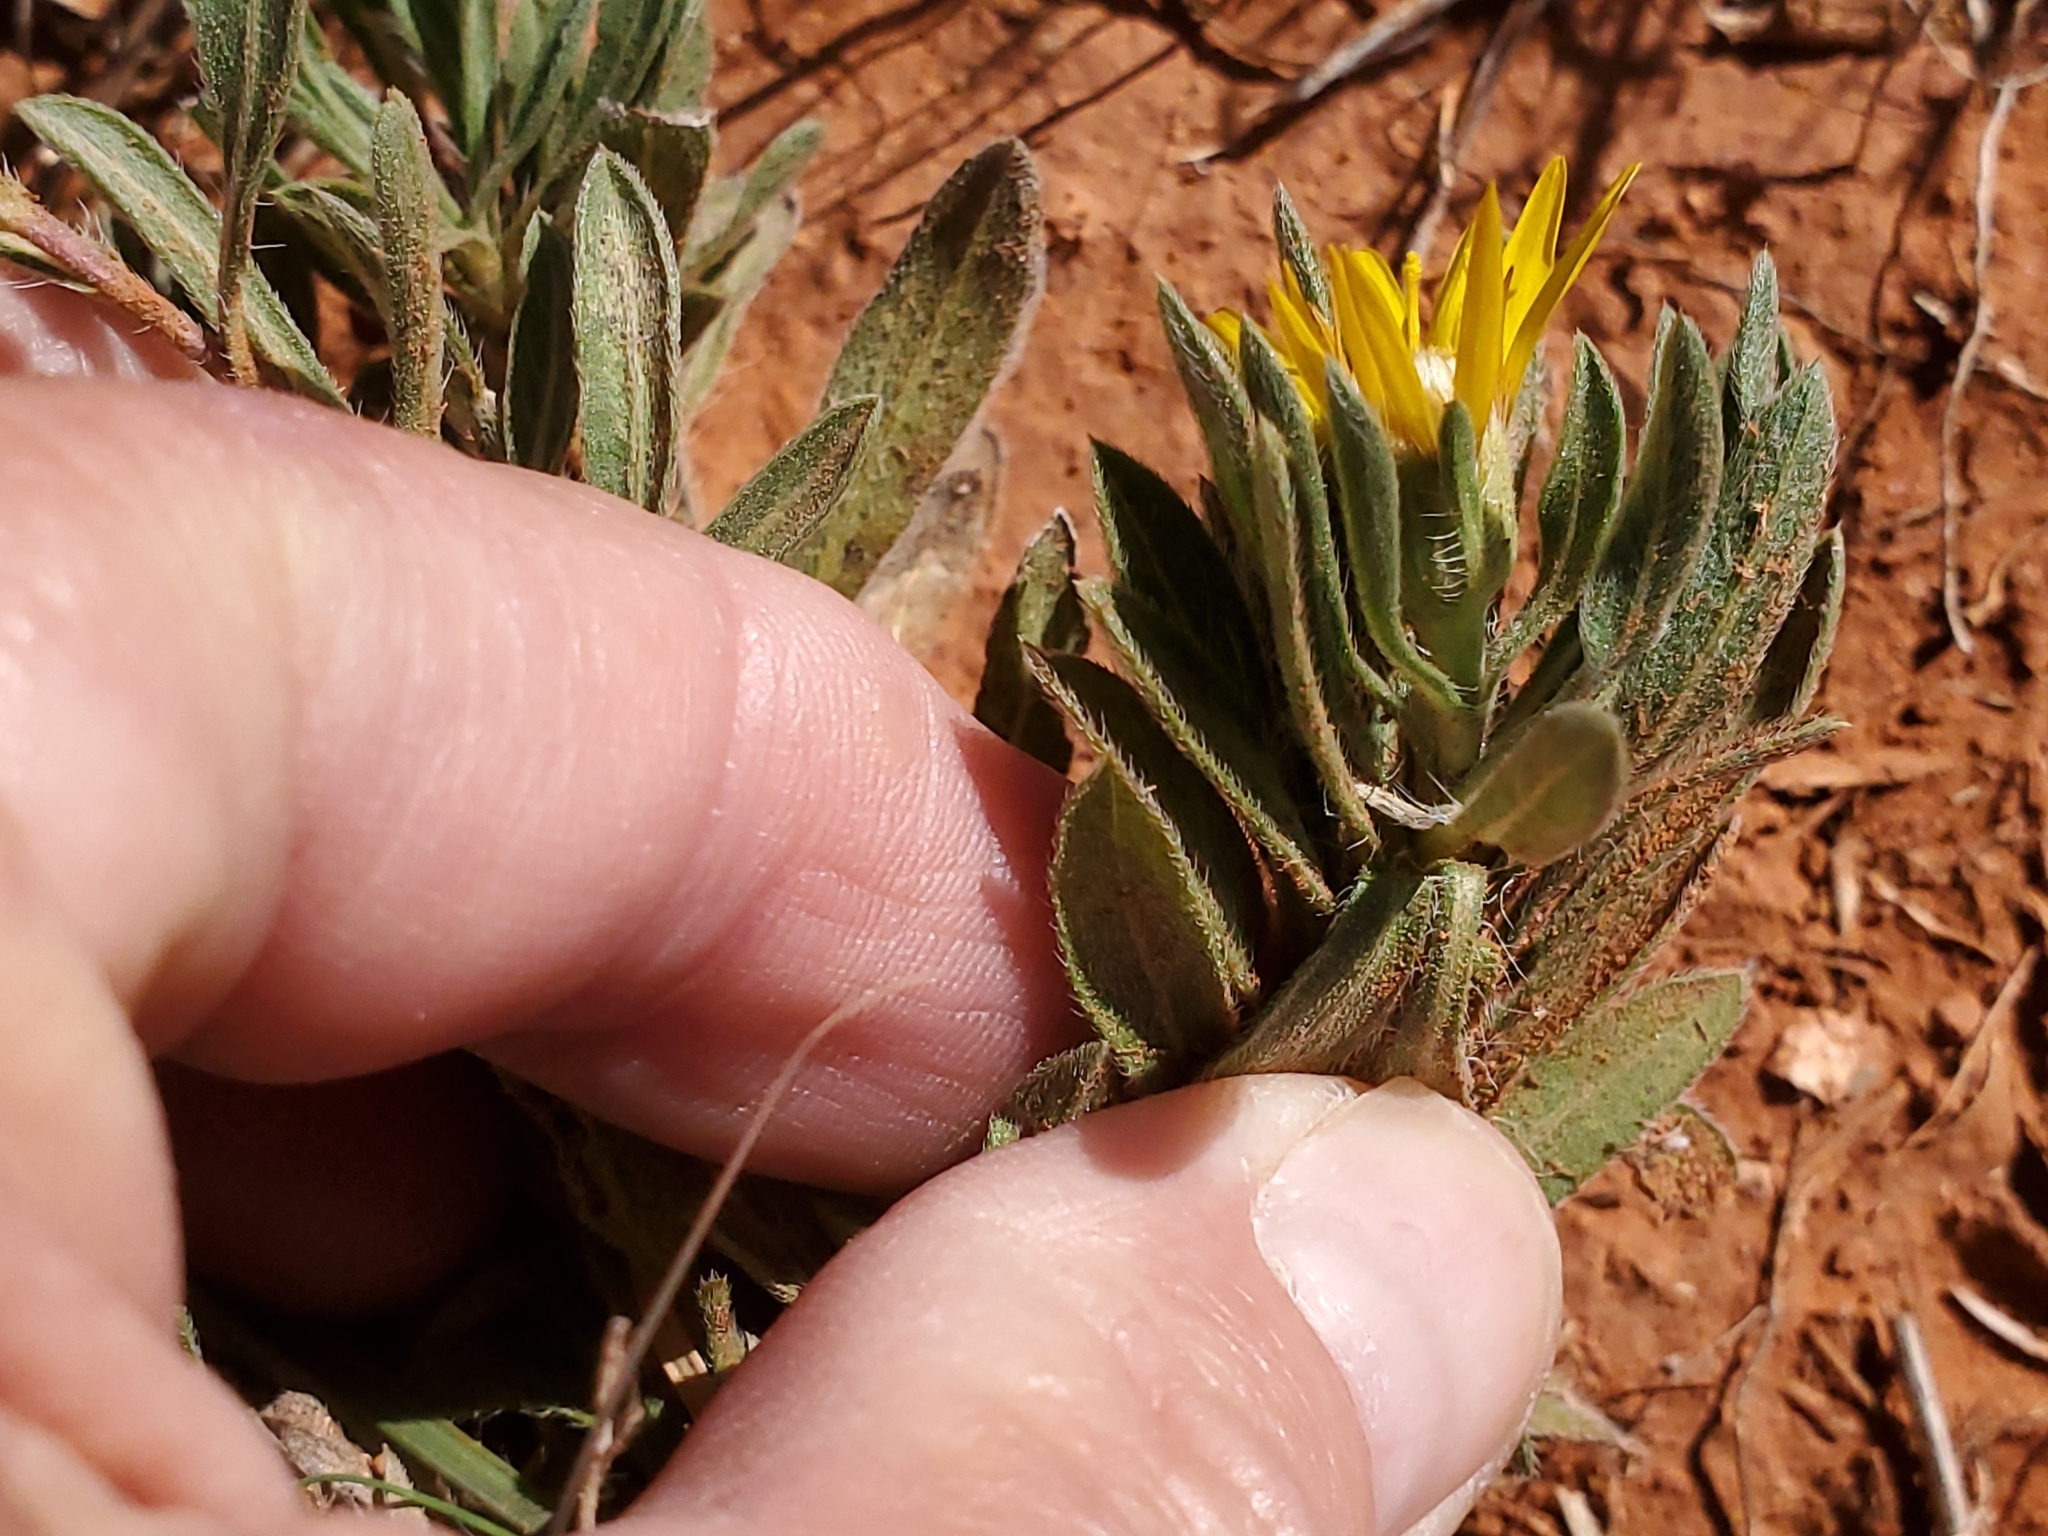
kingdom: Plantae
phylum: Tracheophyta
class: Magnoliopsida
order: Asterales
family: Asteraceae
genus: Heterotheca
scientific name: Heterotheca canescens
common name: Hoary golden-aster
